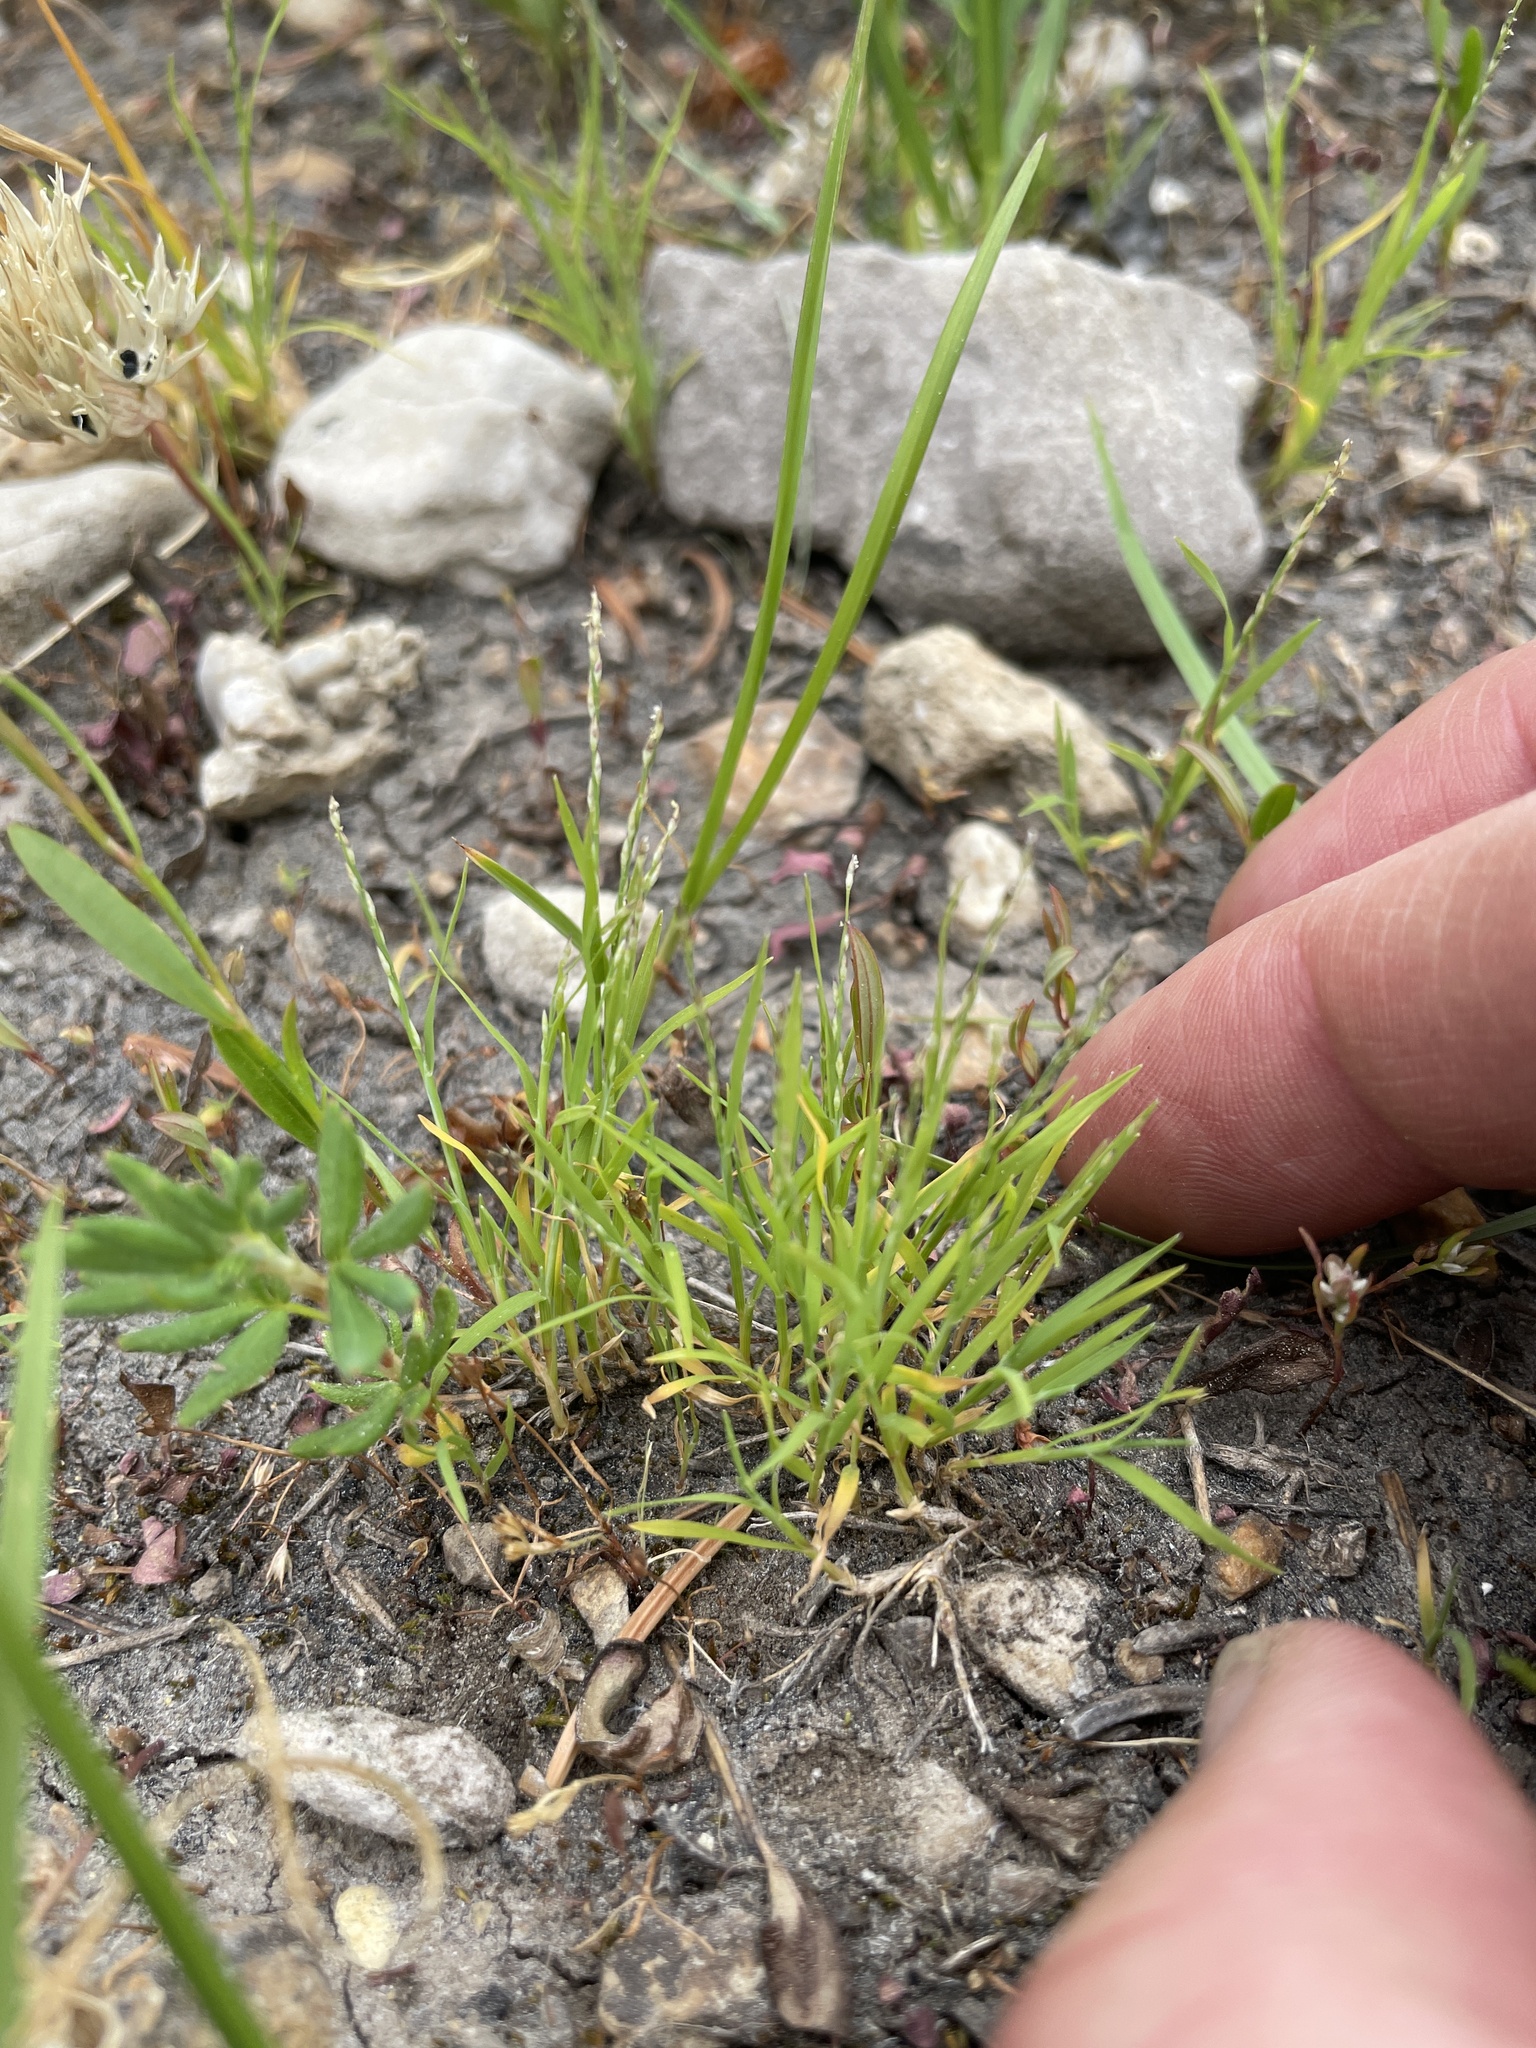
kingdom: Plantae
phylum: Tracheophyta
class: Liliopsida
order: Poales
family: Poaceae
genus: Muhlenbergia
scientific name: Muhlenbergia filiformis
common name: Pull-up muhly
